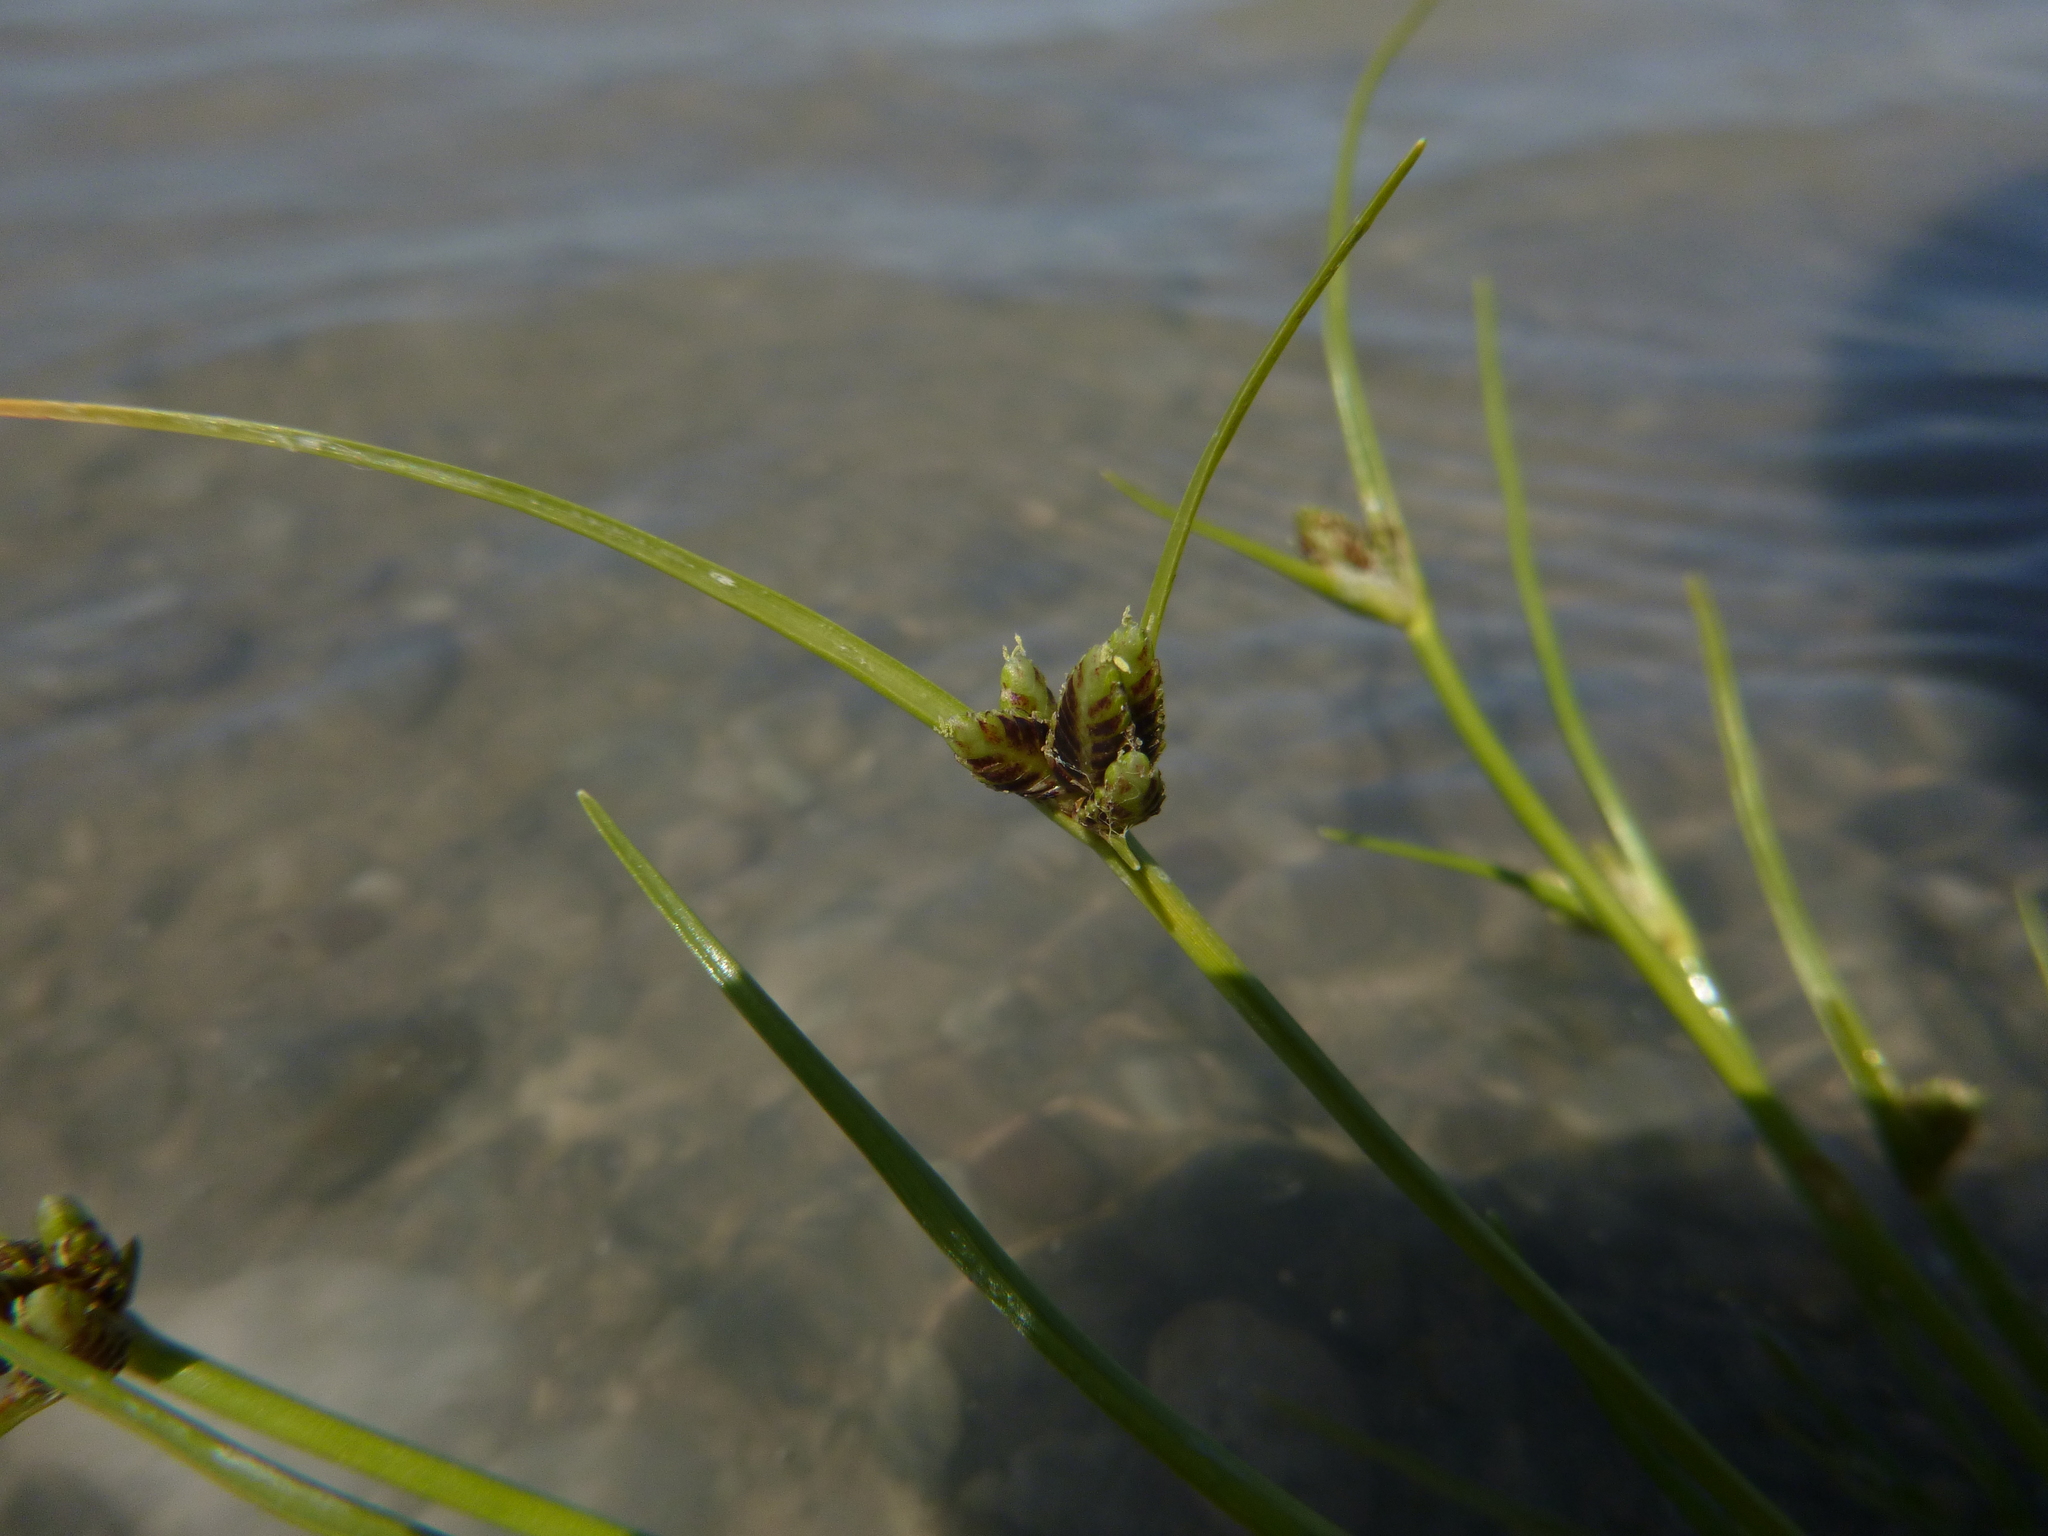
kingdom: Plantae
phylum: Tracheophyta
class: Liliopsida
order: Poales
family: Cyperaceae
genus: Cyperus
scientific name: Cyperus pannonicus
